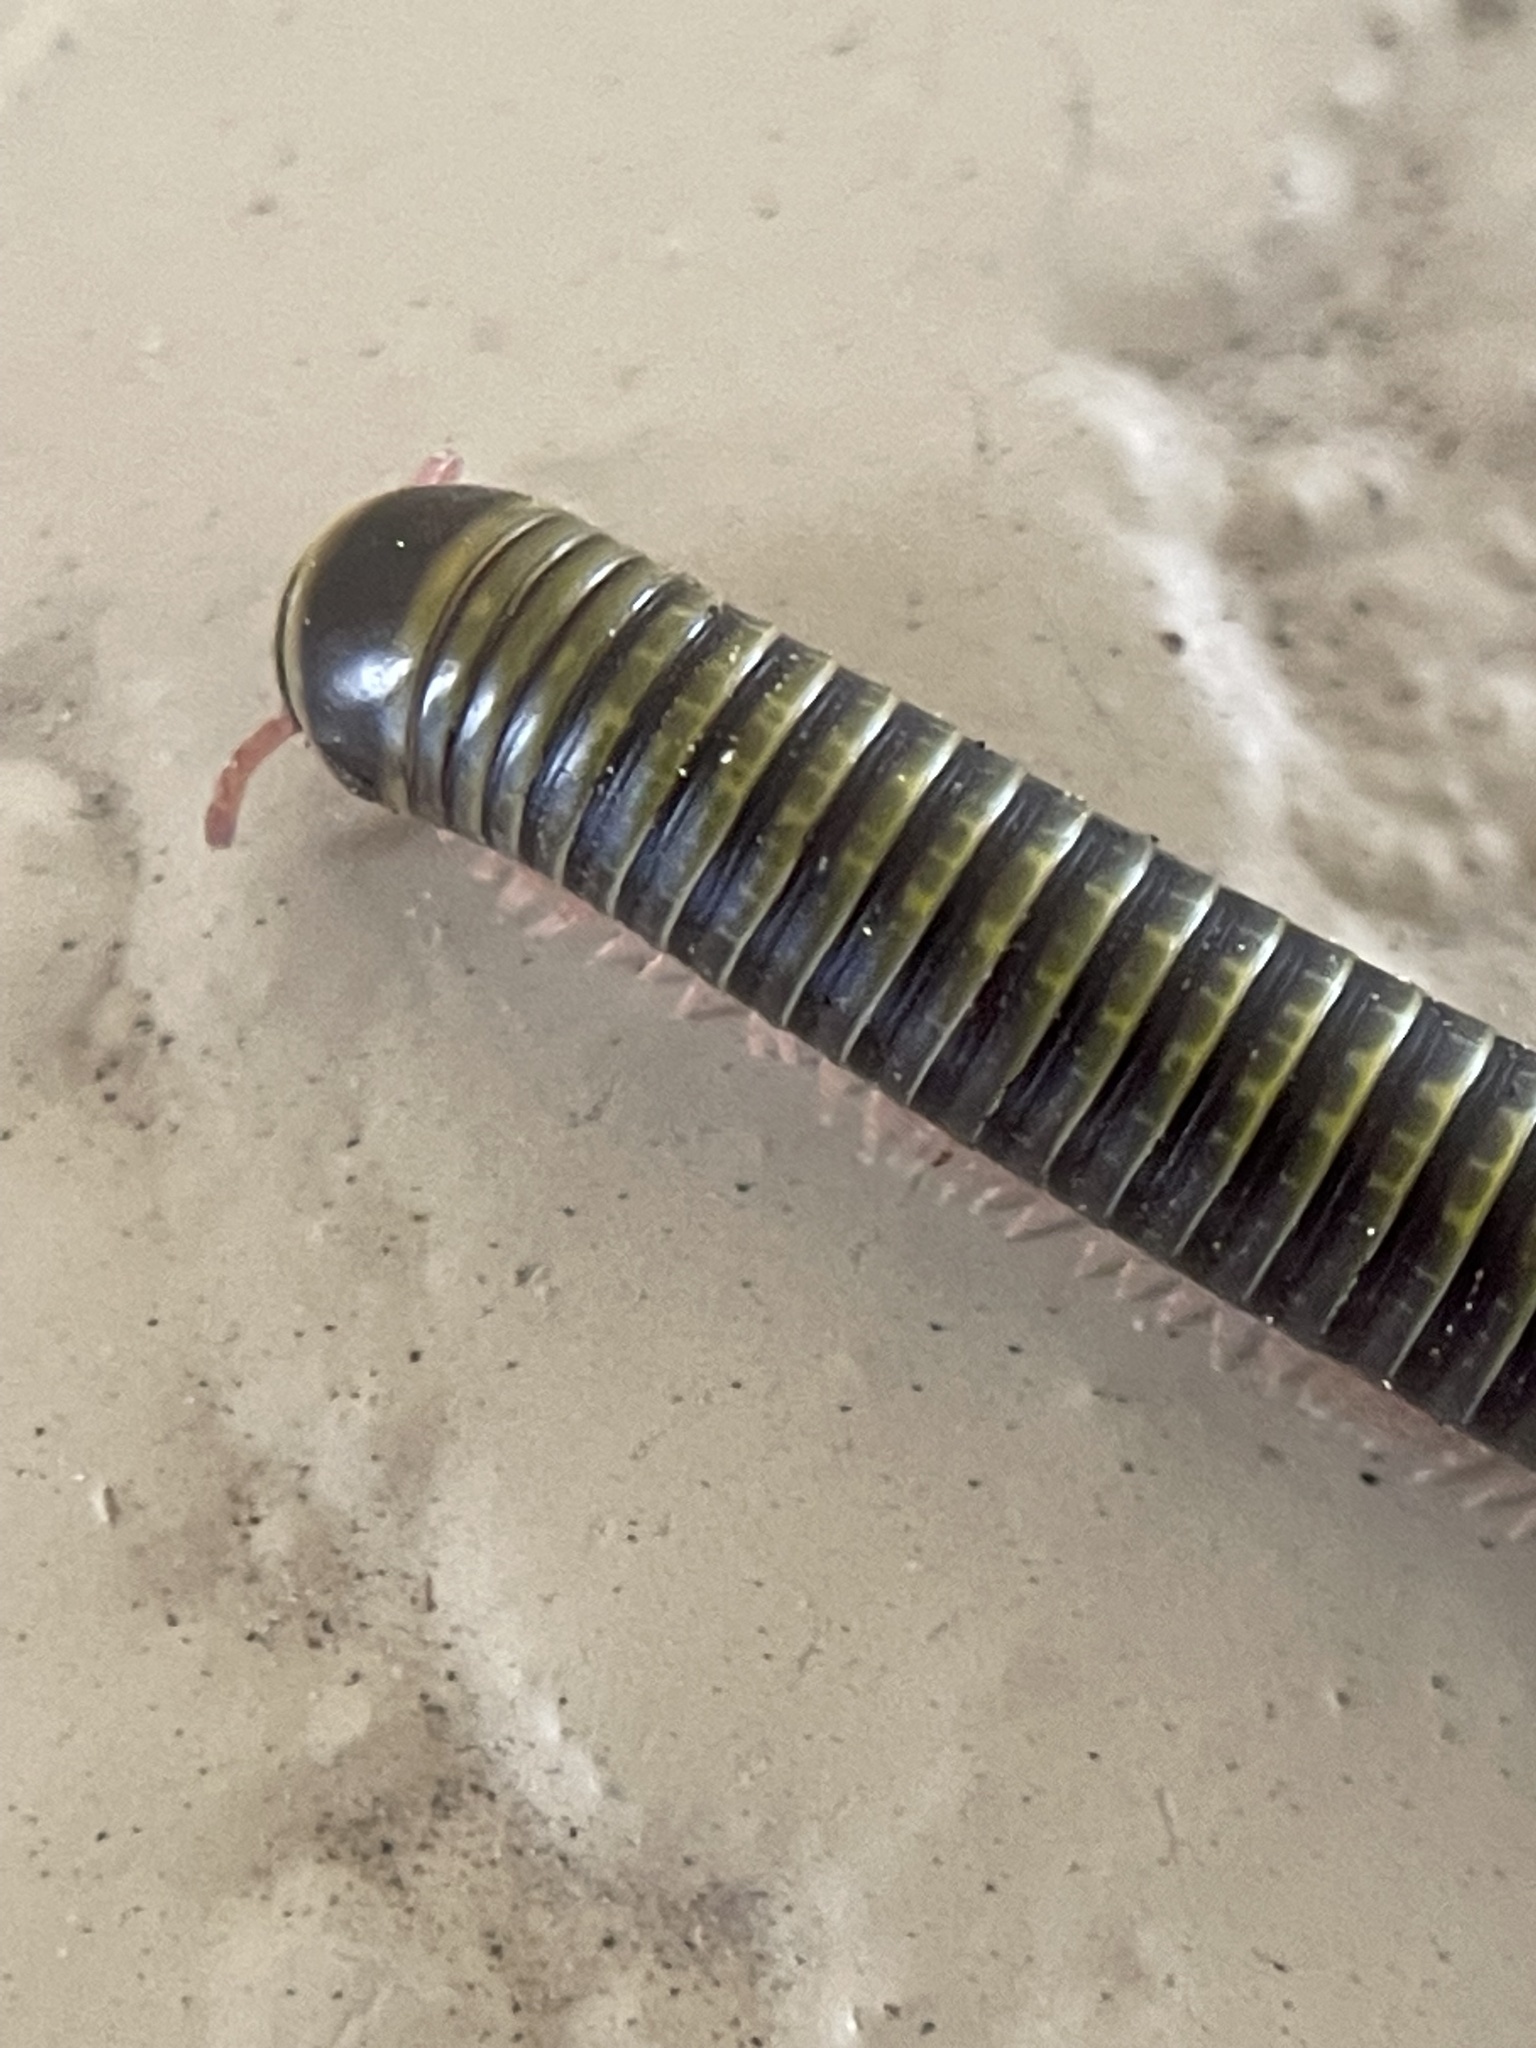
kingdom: Animalia
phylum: Arthropoda
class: Diplopoda
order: Spirobolida
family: Rhinocricidae
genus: Anadenobolus
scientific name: Anadenobolus monilicornis
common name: Caribbean millipede
